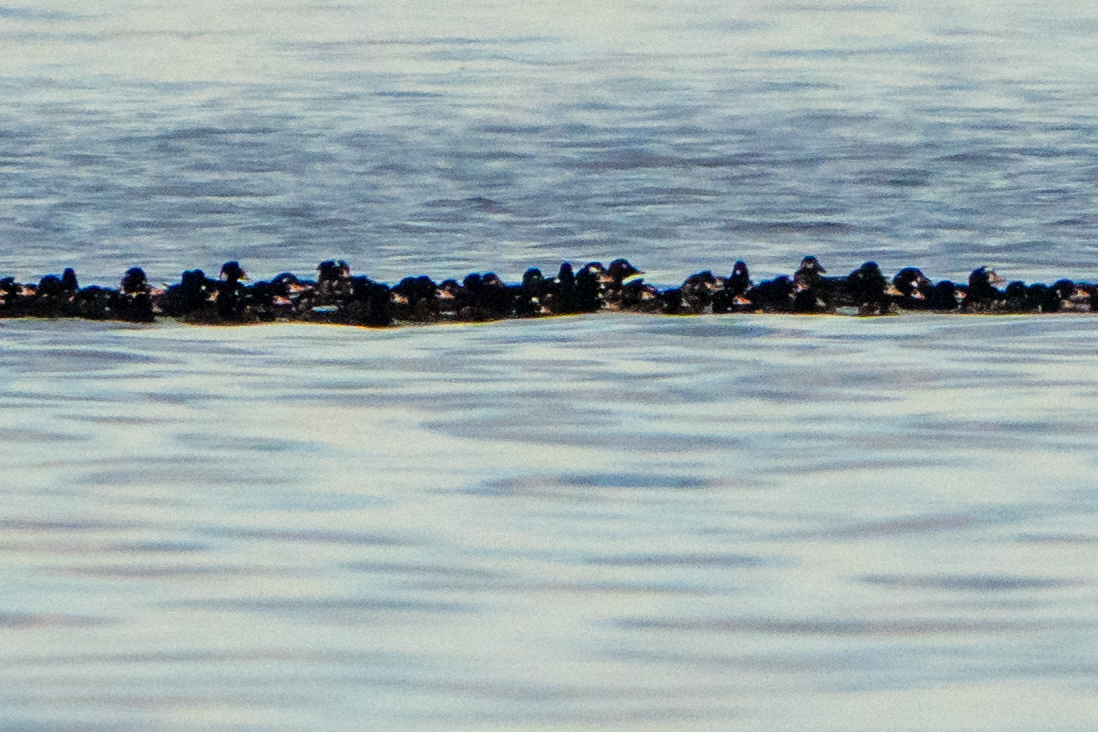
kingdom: Animalia
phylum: Chordata
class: Aves
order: Anseriformes
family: Anatidae
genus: Melanitta
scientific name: Melanitta perspicillata
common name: Surf scoter
